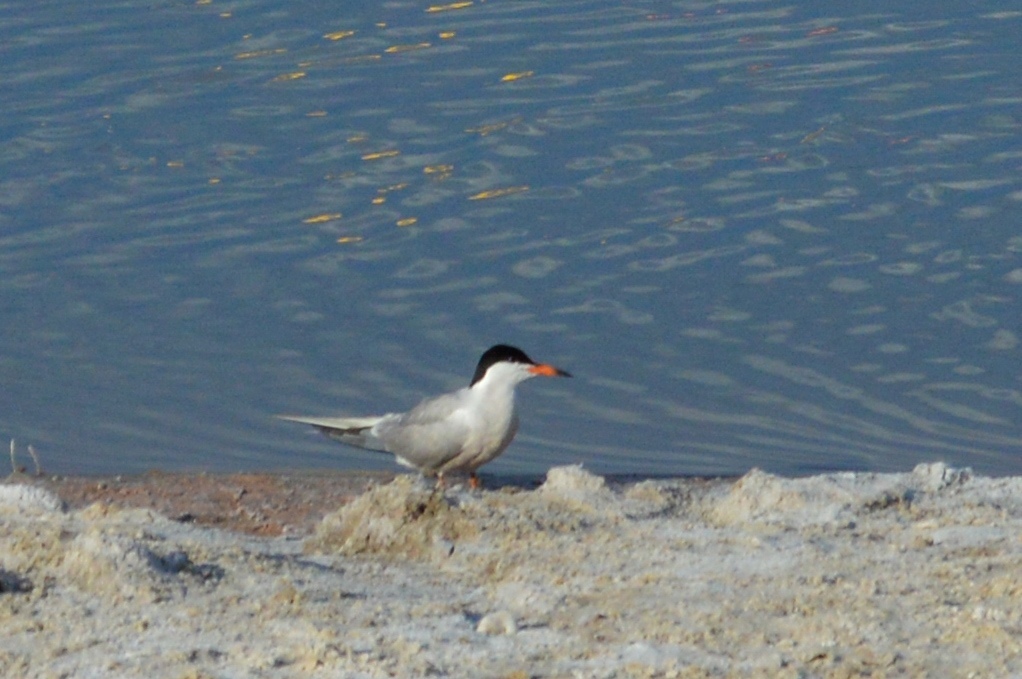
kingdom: Animalia
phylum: Chordata
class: Aves
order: Charadriiformes
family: Laridae
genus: Sterna
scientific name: Sterna hirundo
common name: Common tern
